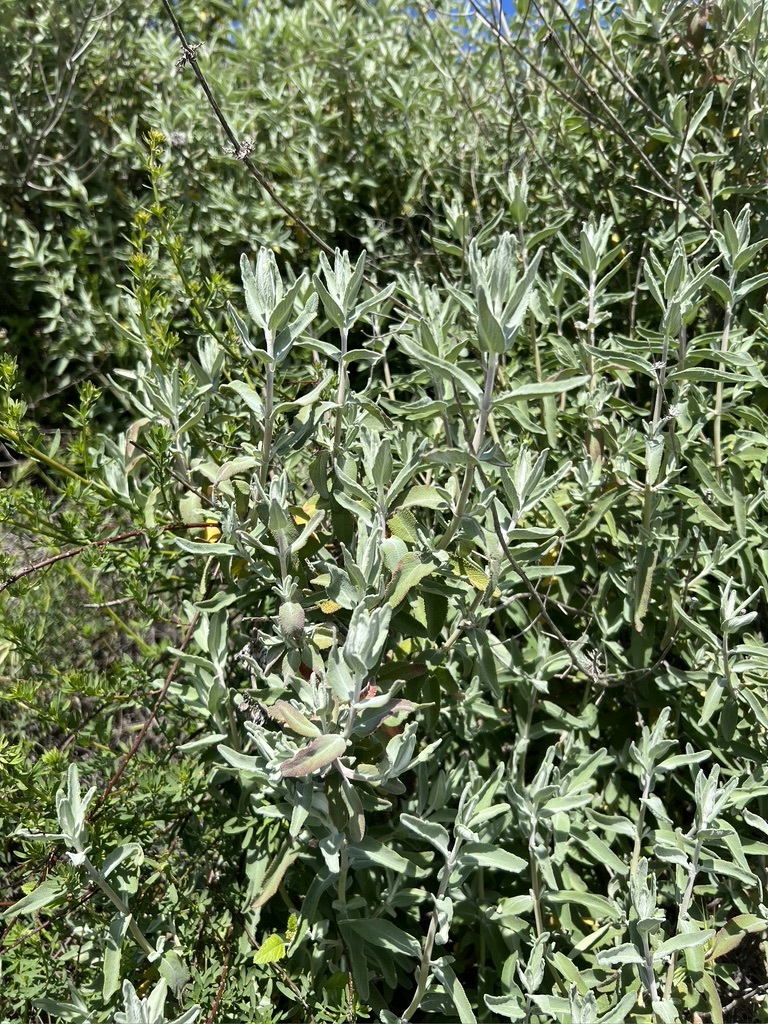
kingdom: Plantae
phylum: Tracheophyta
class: Magnoliopsida
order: Lamiales
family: Lamiaceae
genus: Salvia
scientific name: Salvia leucophylla
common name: Purple sage
